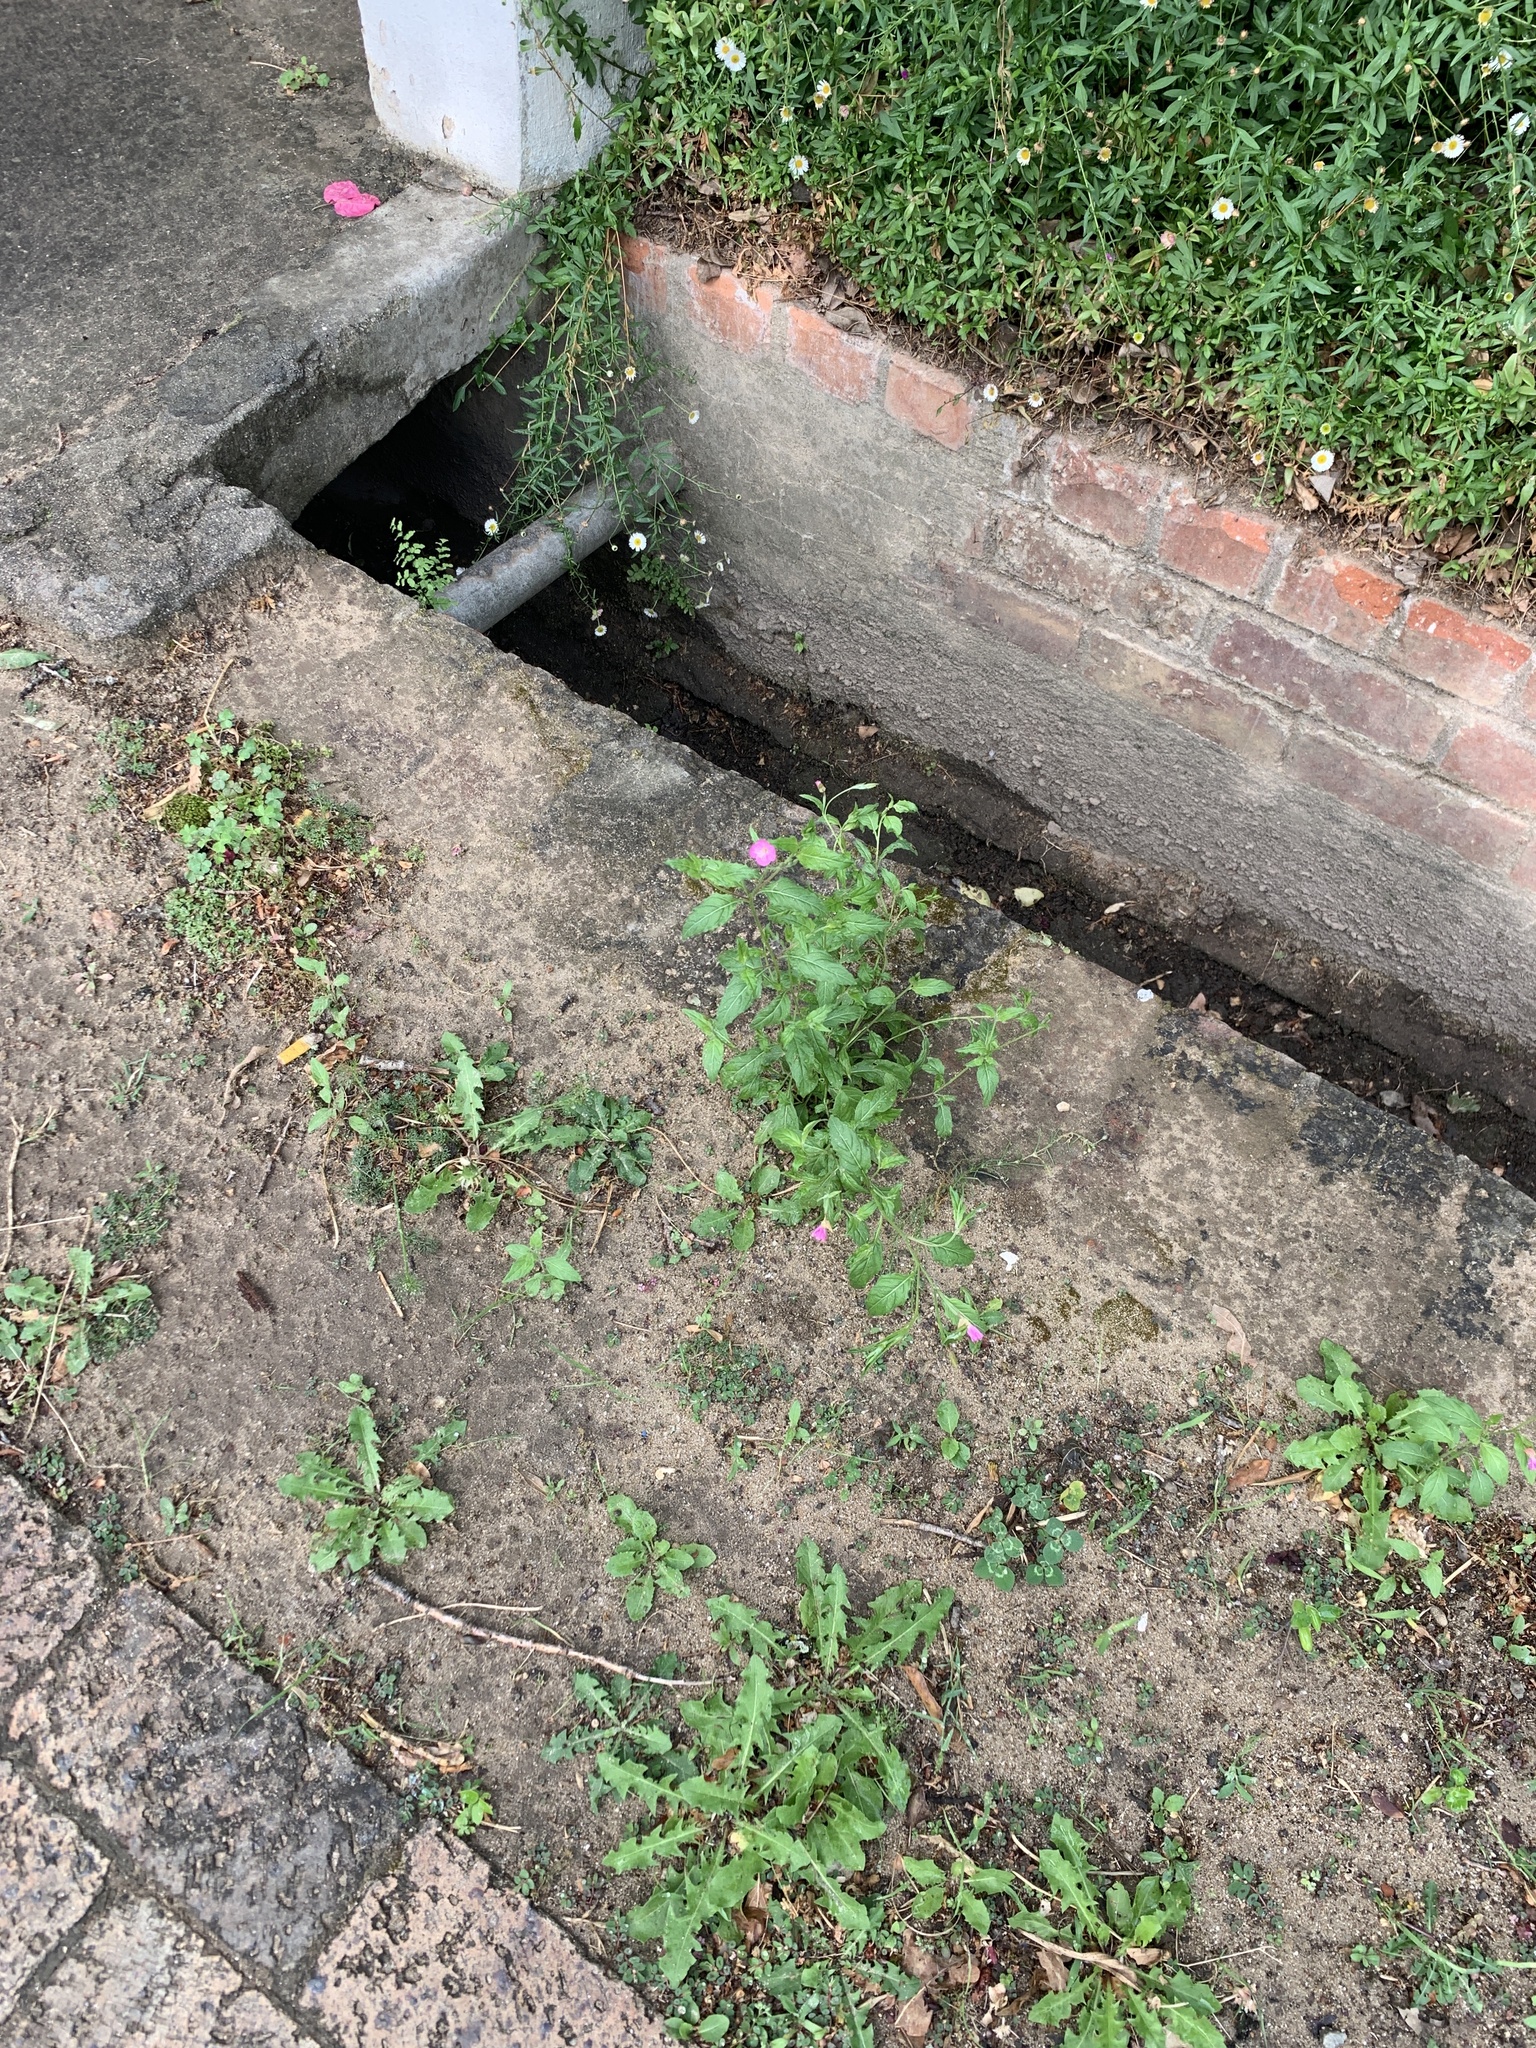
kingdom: Plantae
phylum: Tracheophyta
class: Magnoliopsida
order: Myrtales
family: Onagraceae
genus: Oenothera
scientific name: Oenothera rosea
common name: Rosy evening-primrose
